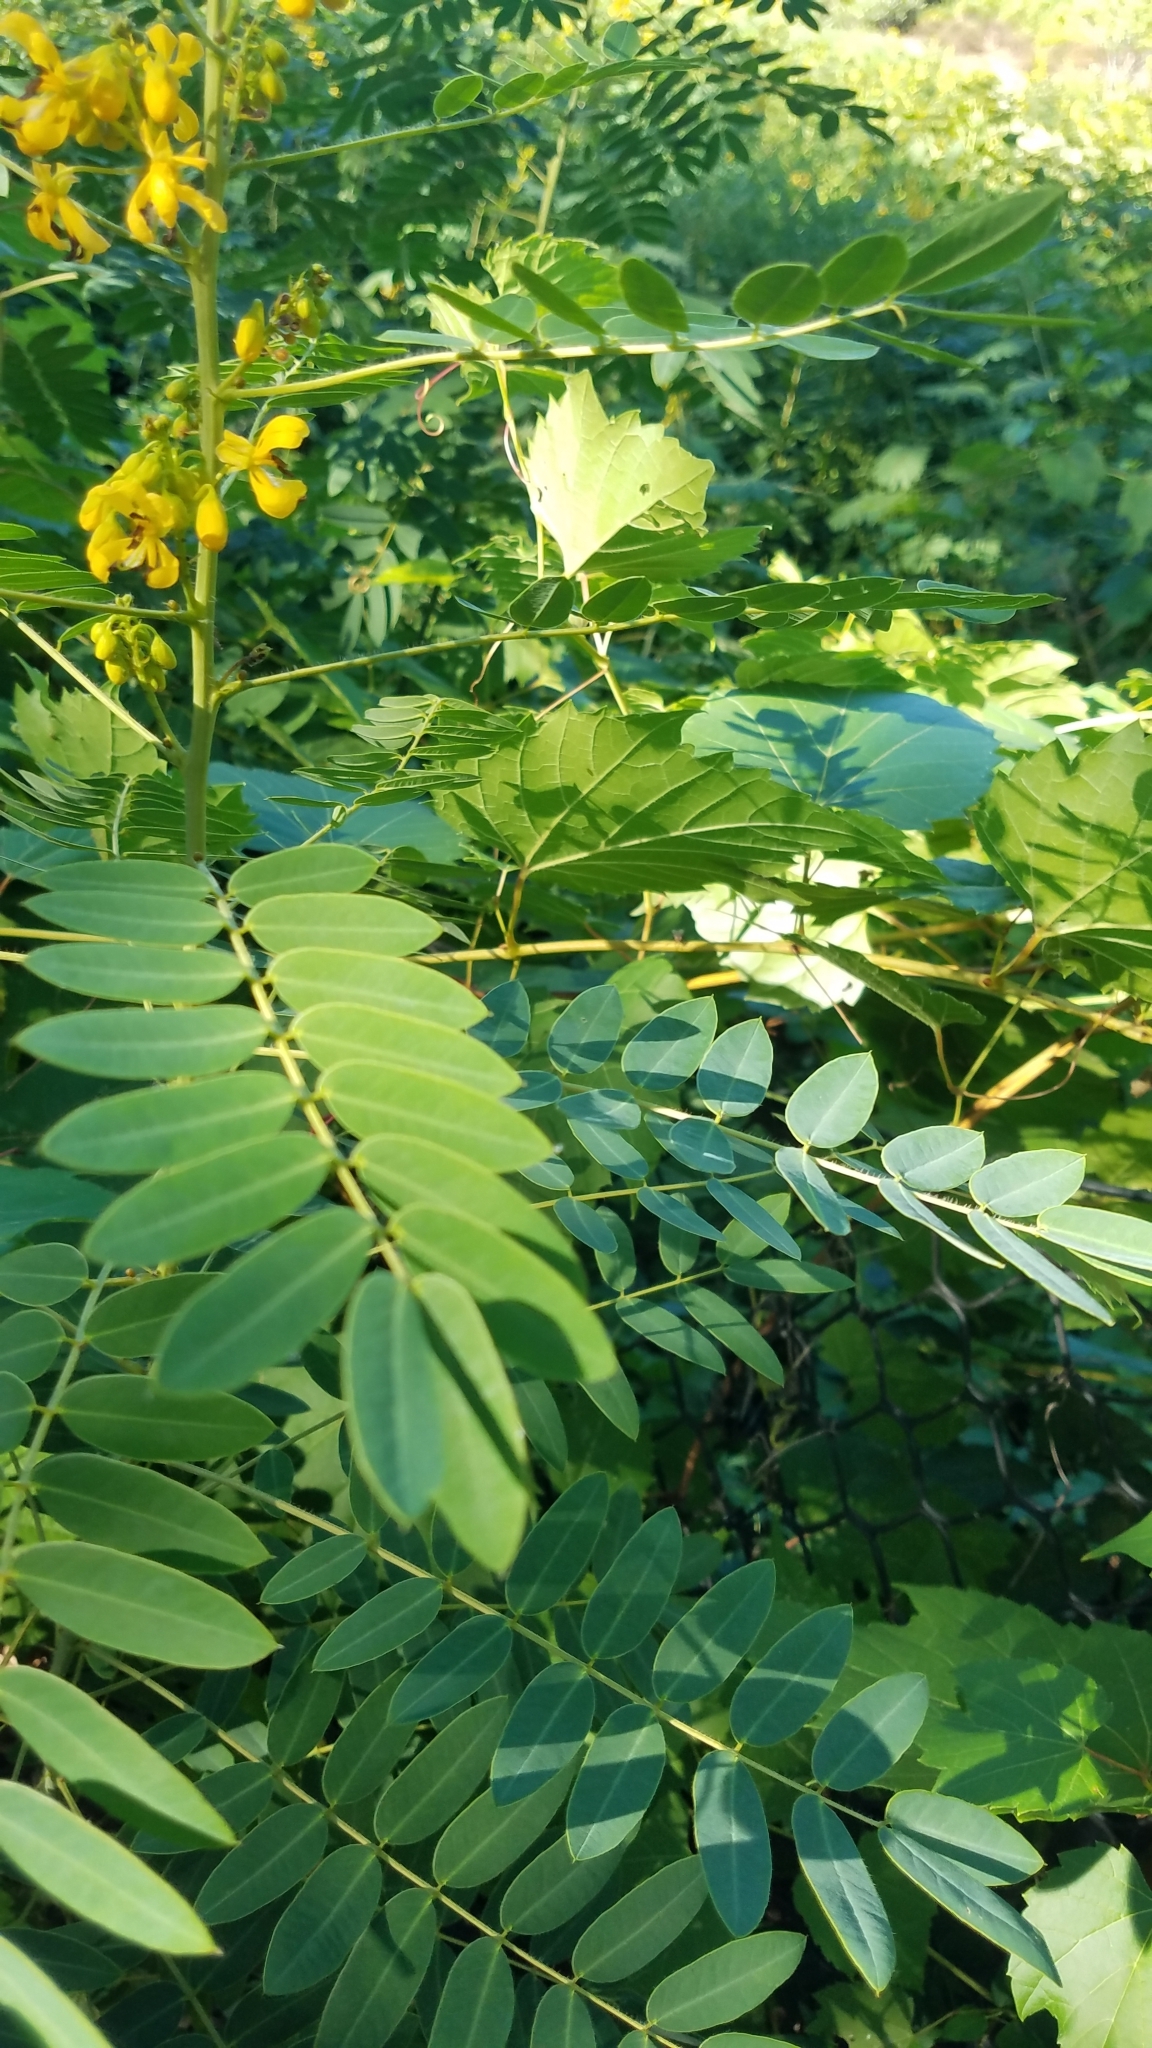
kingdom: Plantae
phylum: Tracheophyta
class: Magnoliopsida
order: Fabales
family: Fabaceae
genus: Senna
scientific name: Senna hebecarpa
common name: Wild senna
